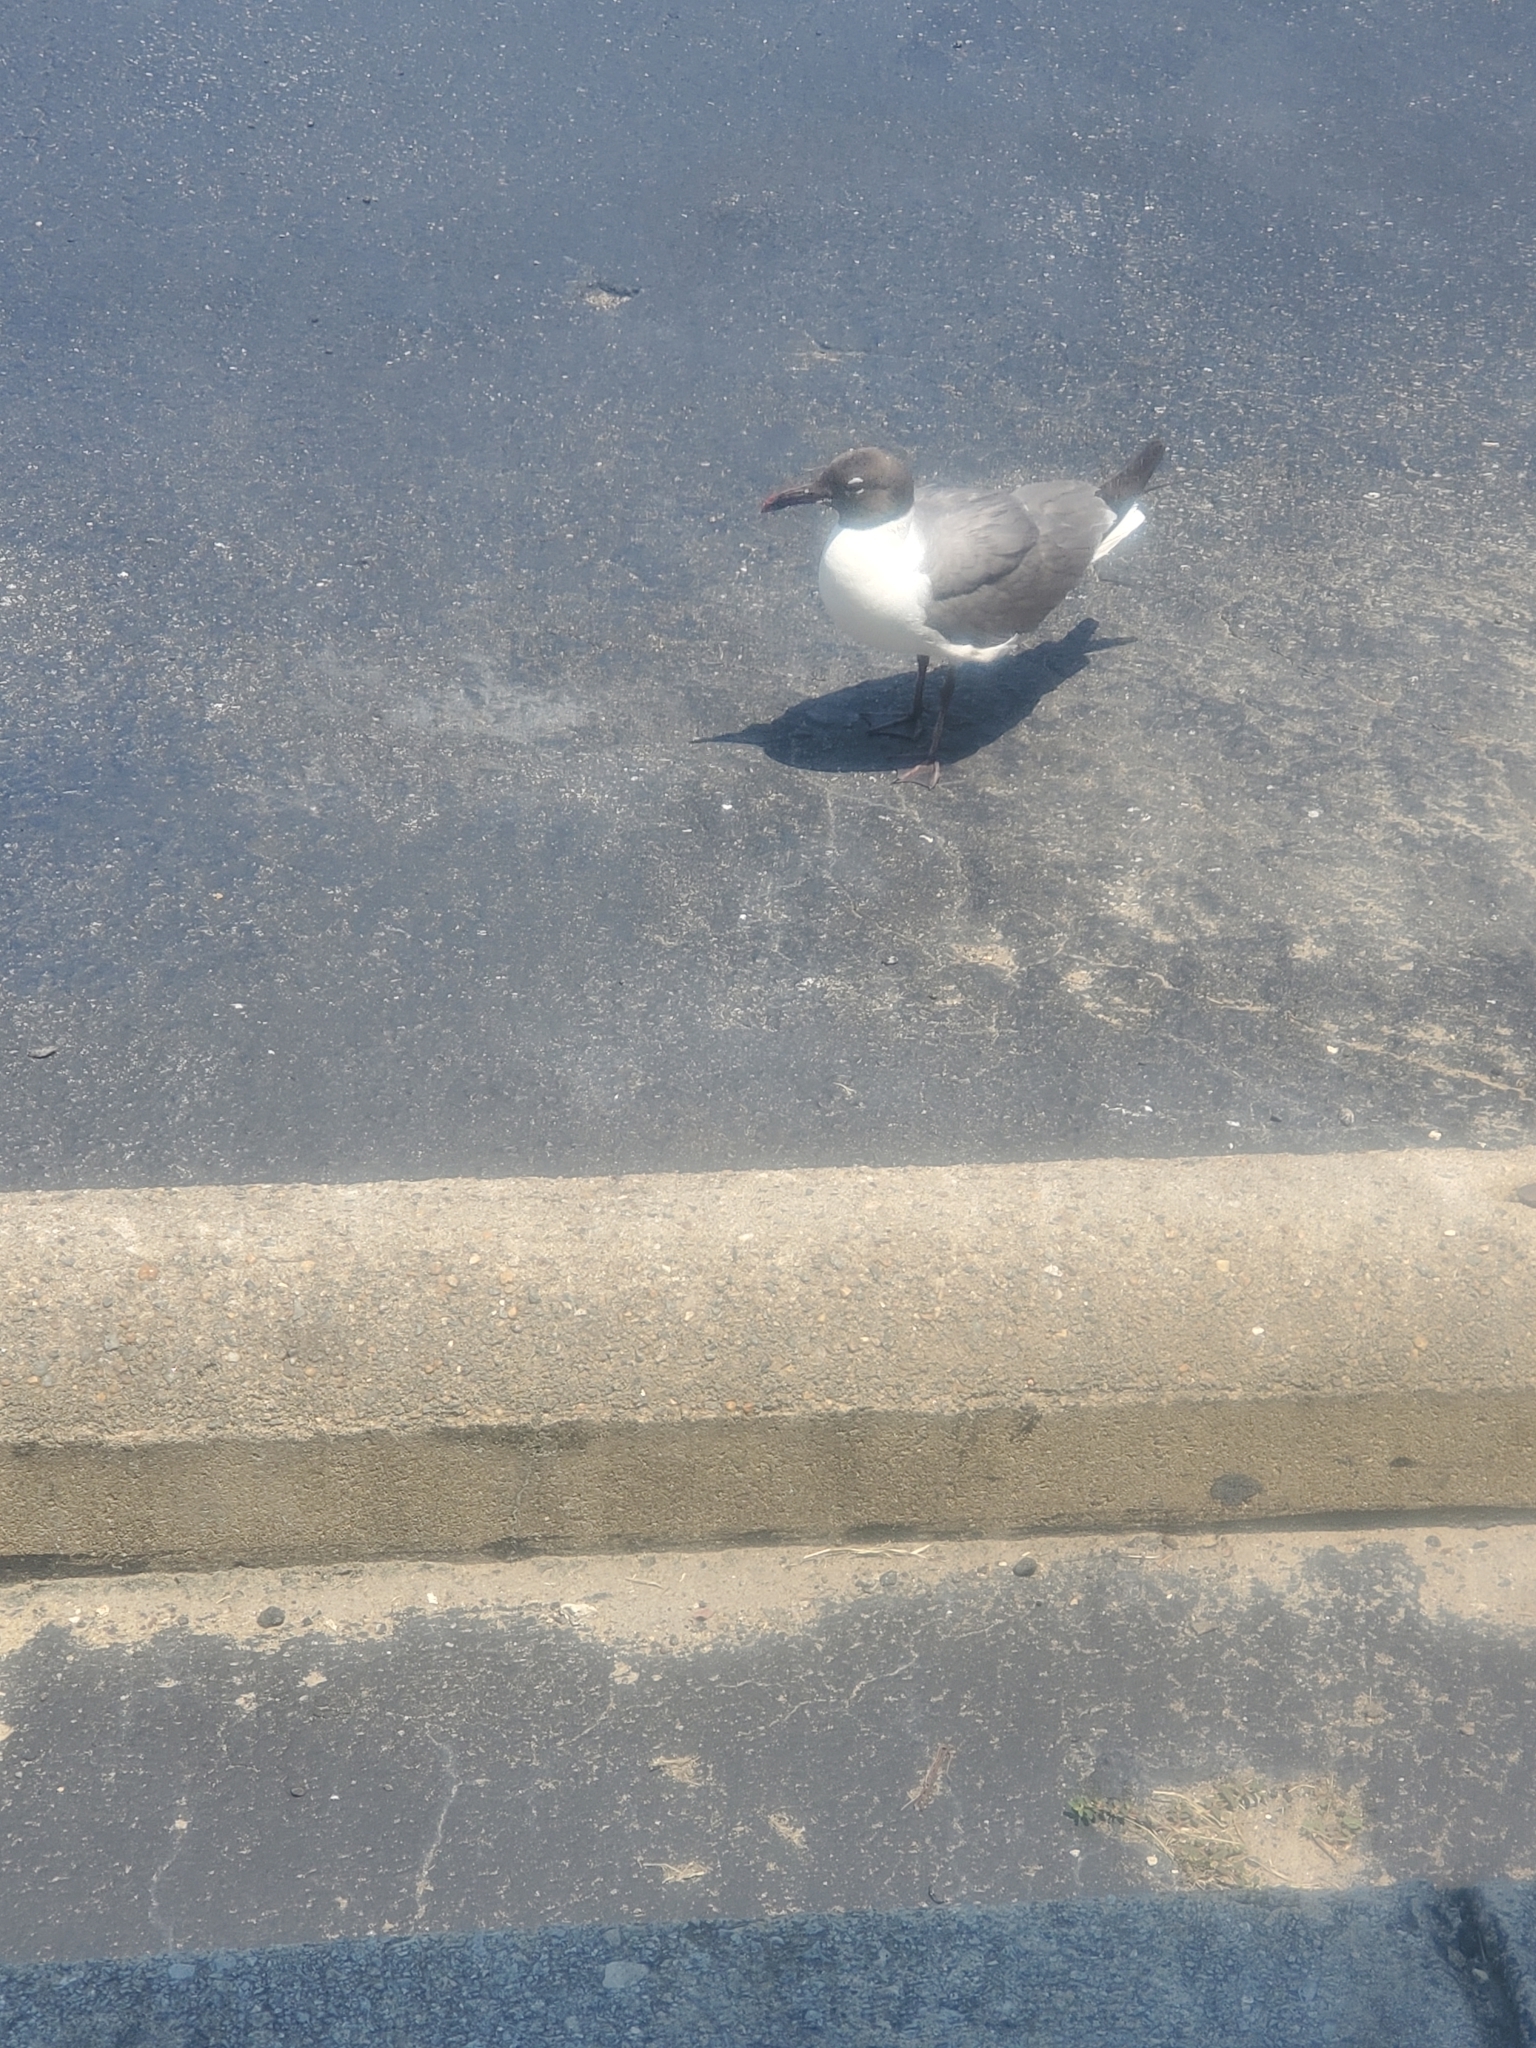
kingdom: Animalia
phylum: Chordata
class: Aves
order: Charadriiformes
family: Laridae
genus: Leucophaeus
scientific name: Leucophaeus atricilla
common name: Laughing gull
